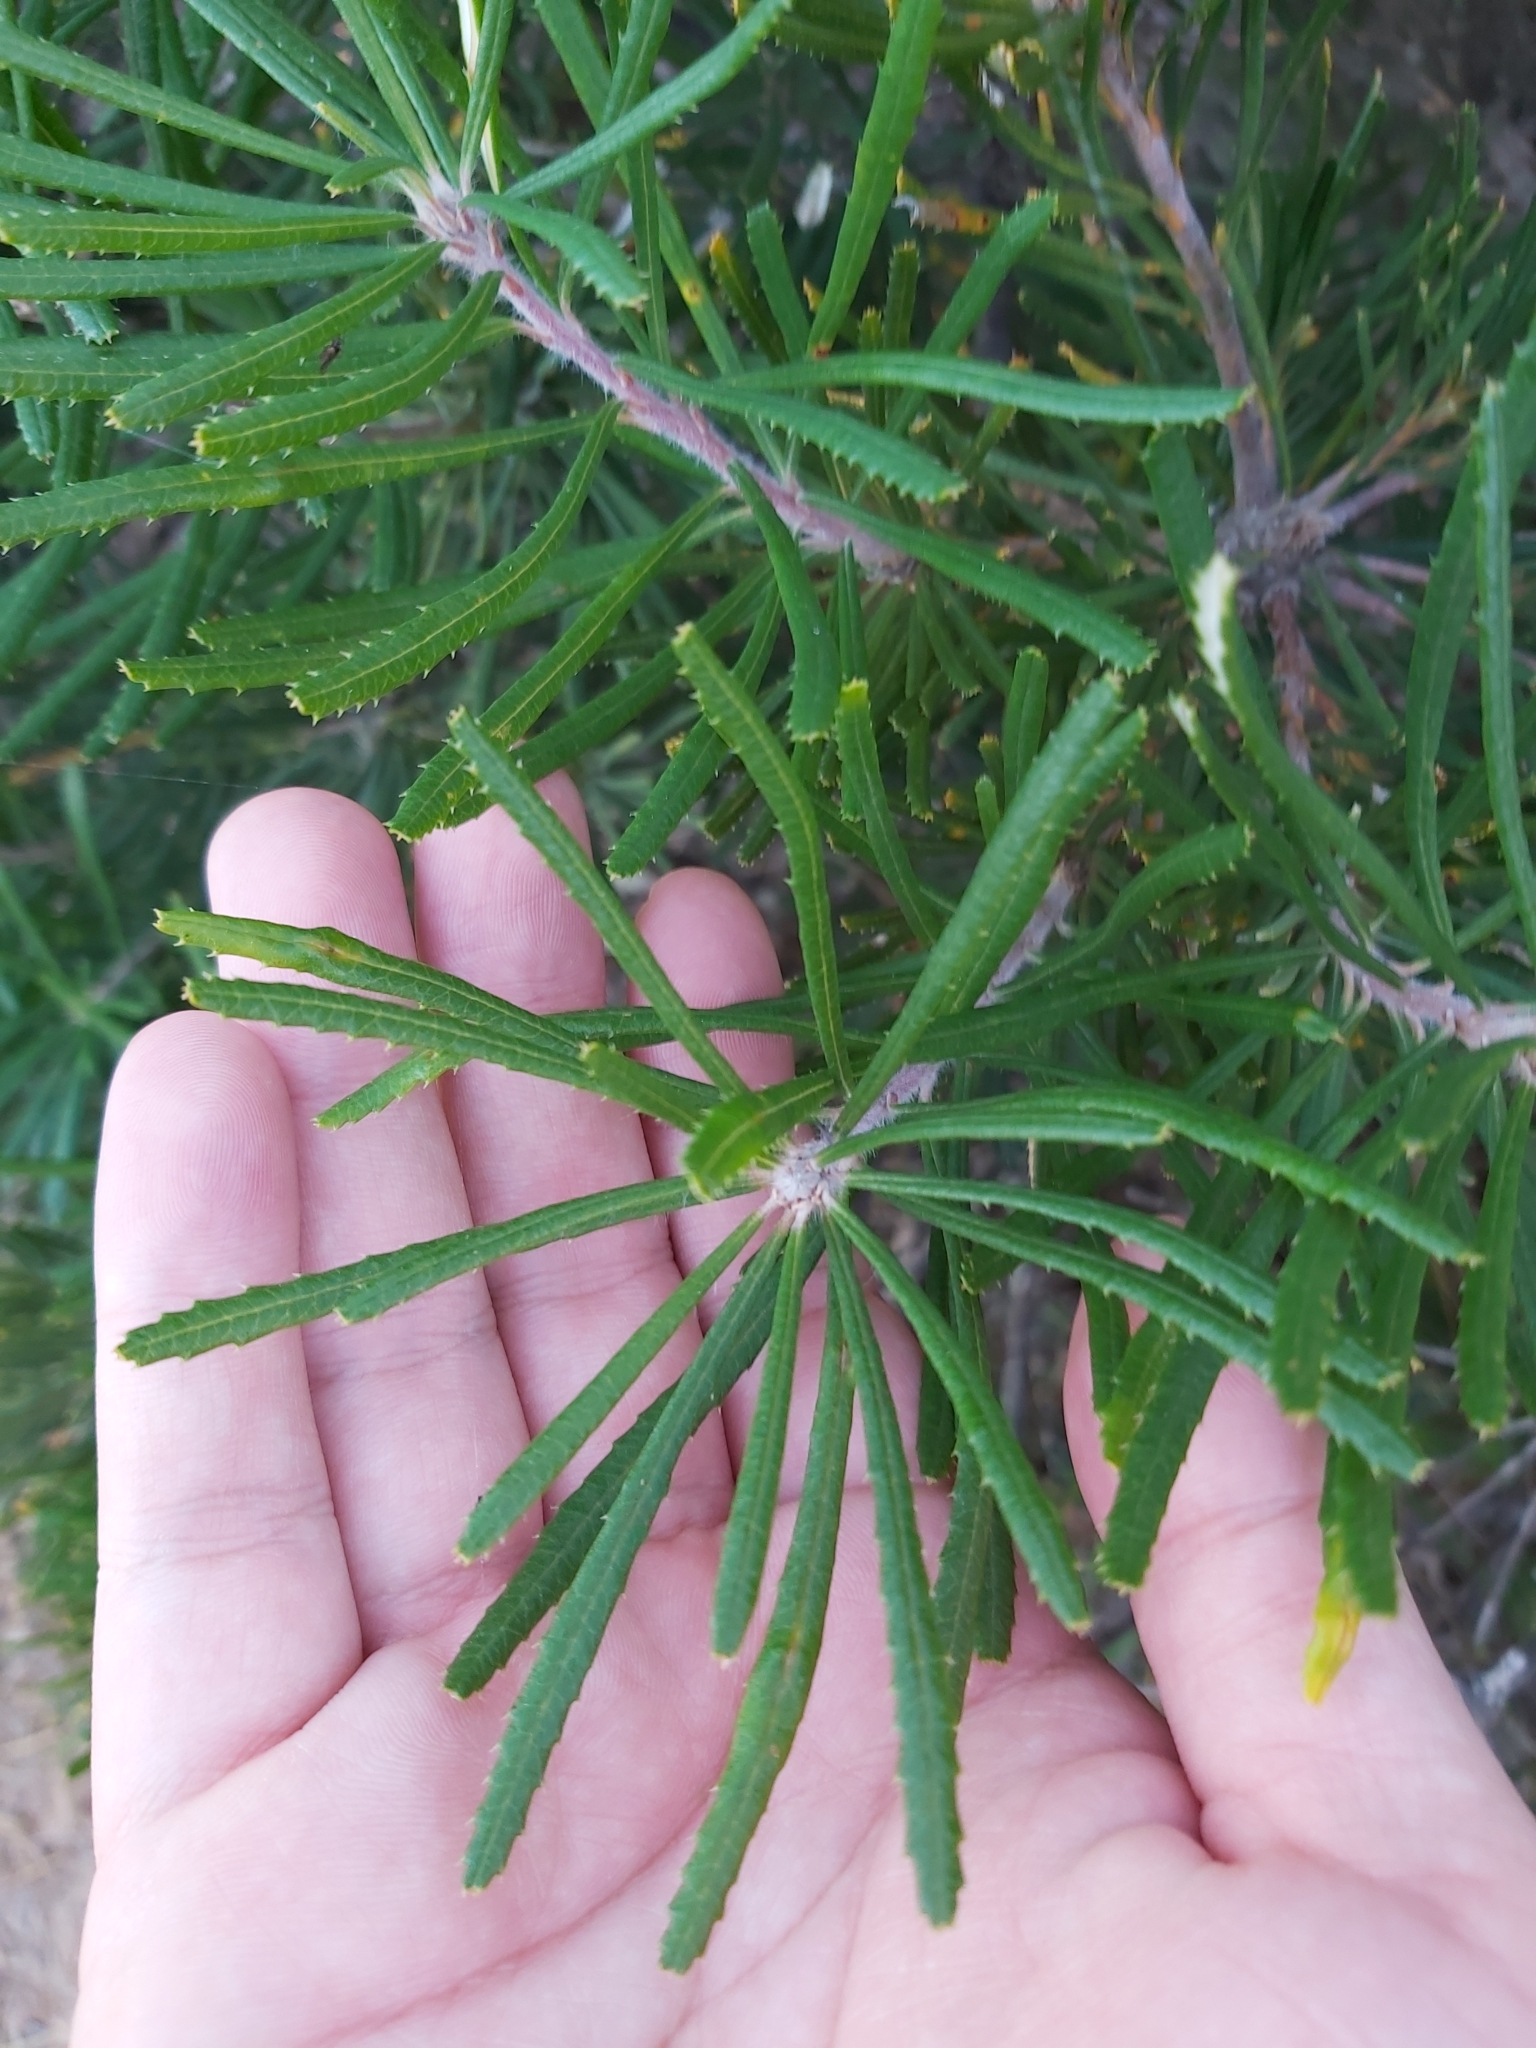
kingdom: Plantae
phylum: Tracheophyta
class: Magnoliopsida
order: Proteales
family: Proteaceae
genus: Banksia
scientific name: Banksia spinulosa
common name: Hairpin banksia
